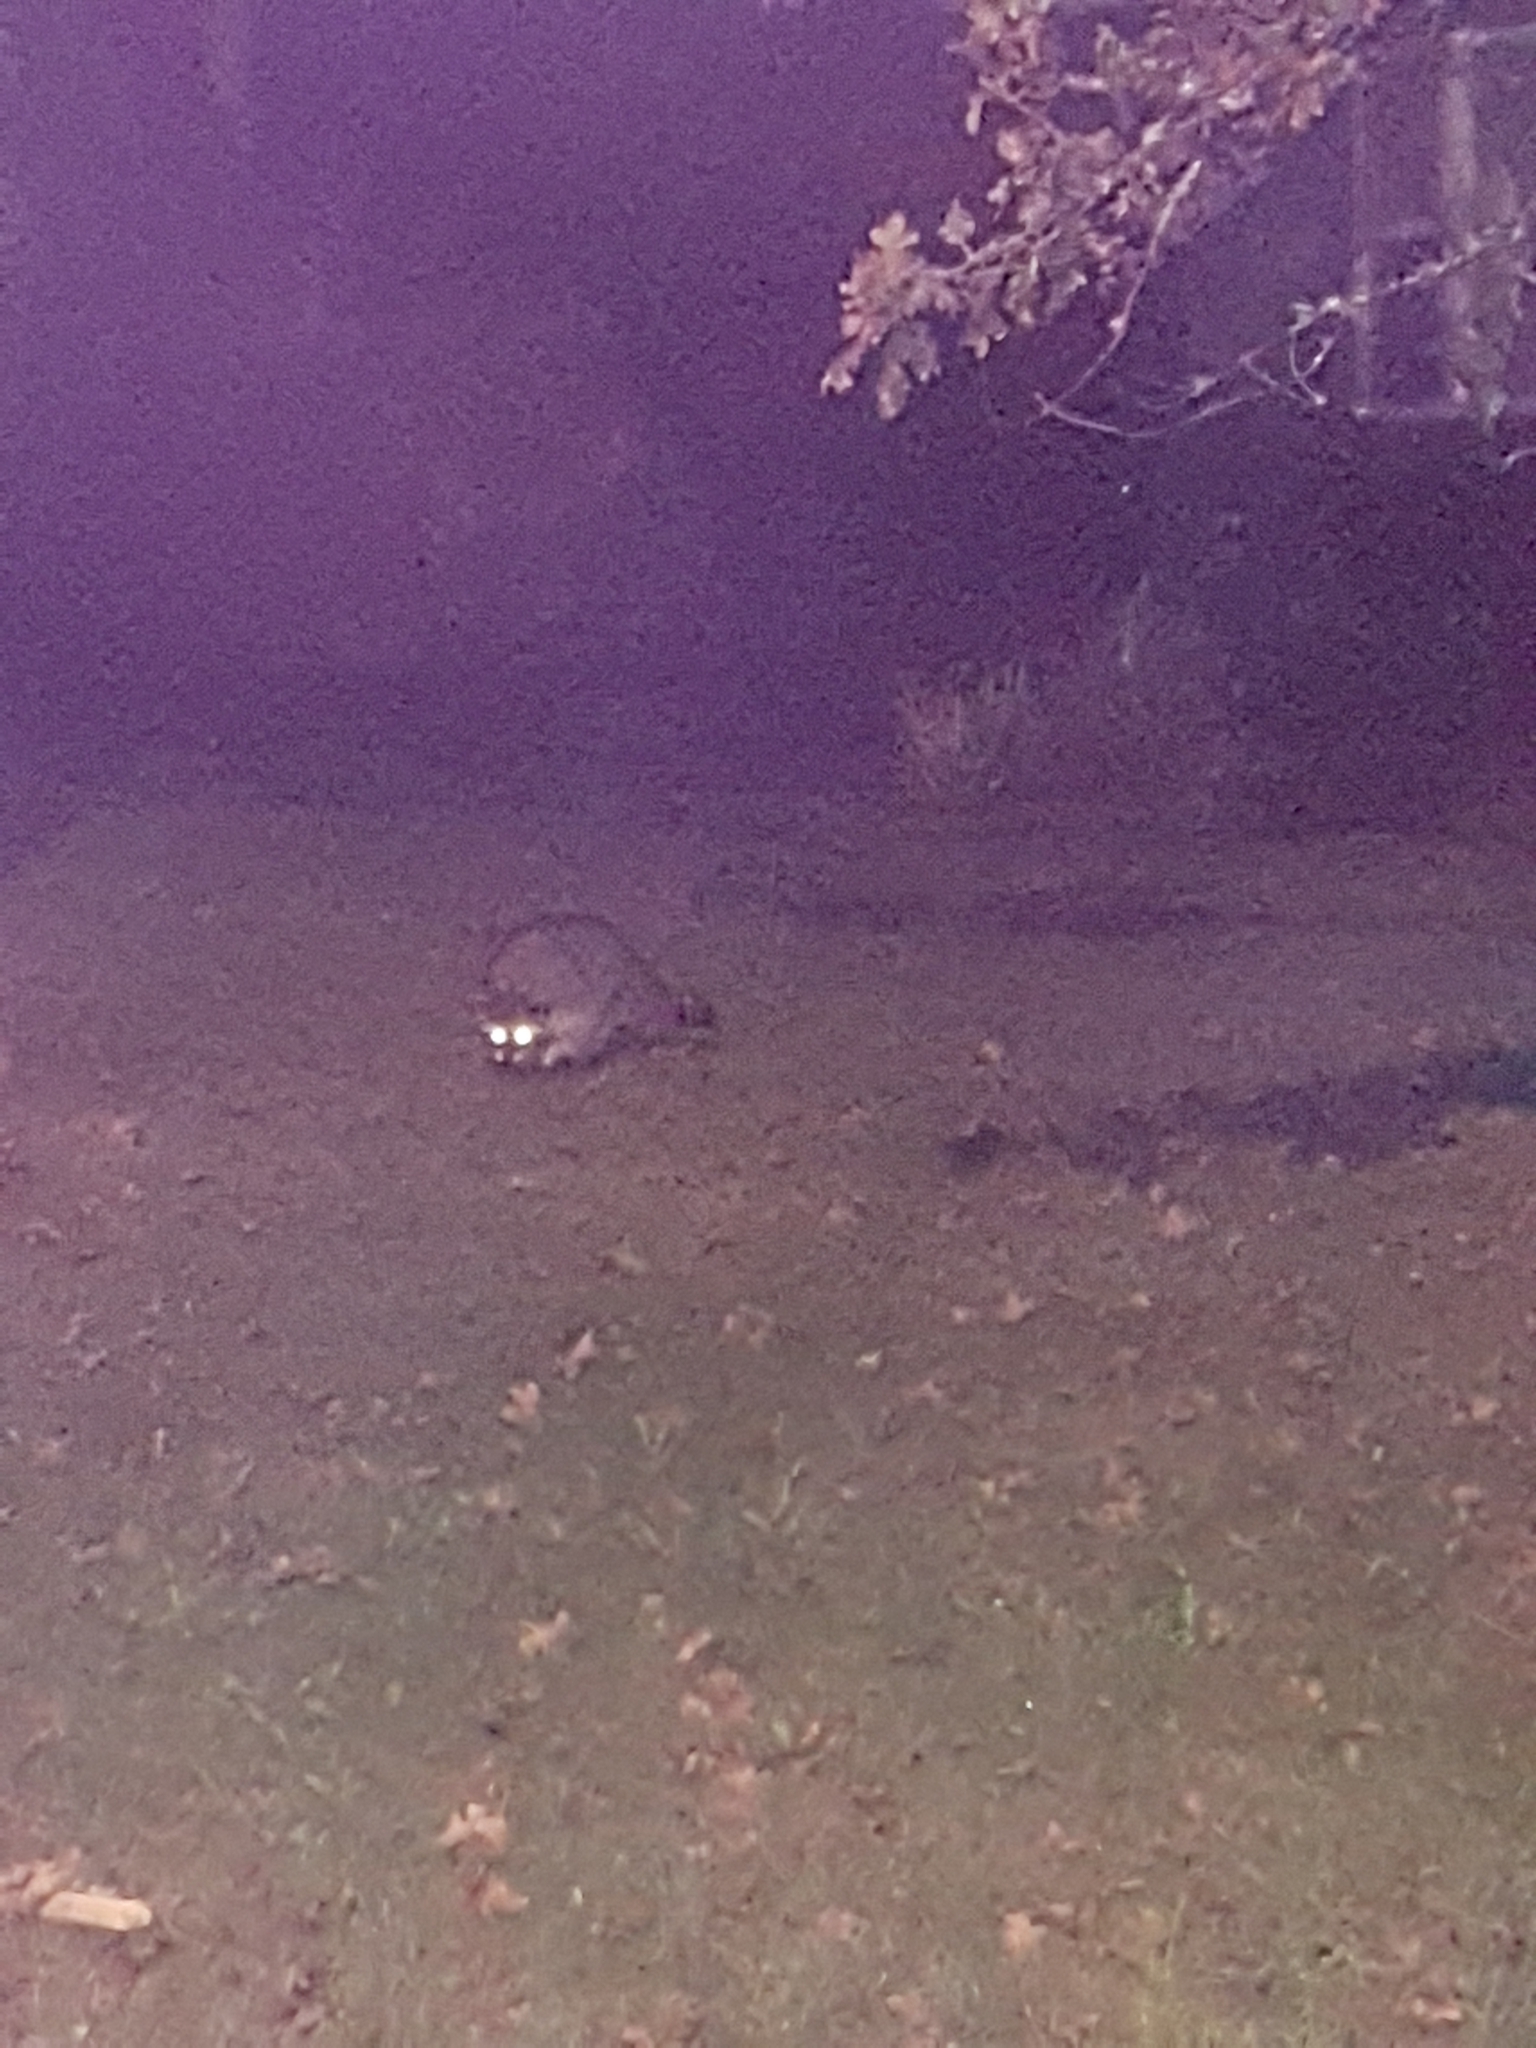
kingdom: Animalia
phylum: Chordata
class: Mammalia
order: Carnivora
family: Procyonidae
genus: Procyon
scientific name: Procyon lotor
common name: Raccoon
